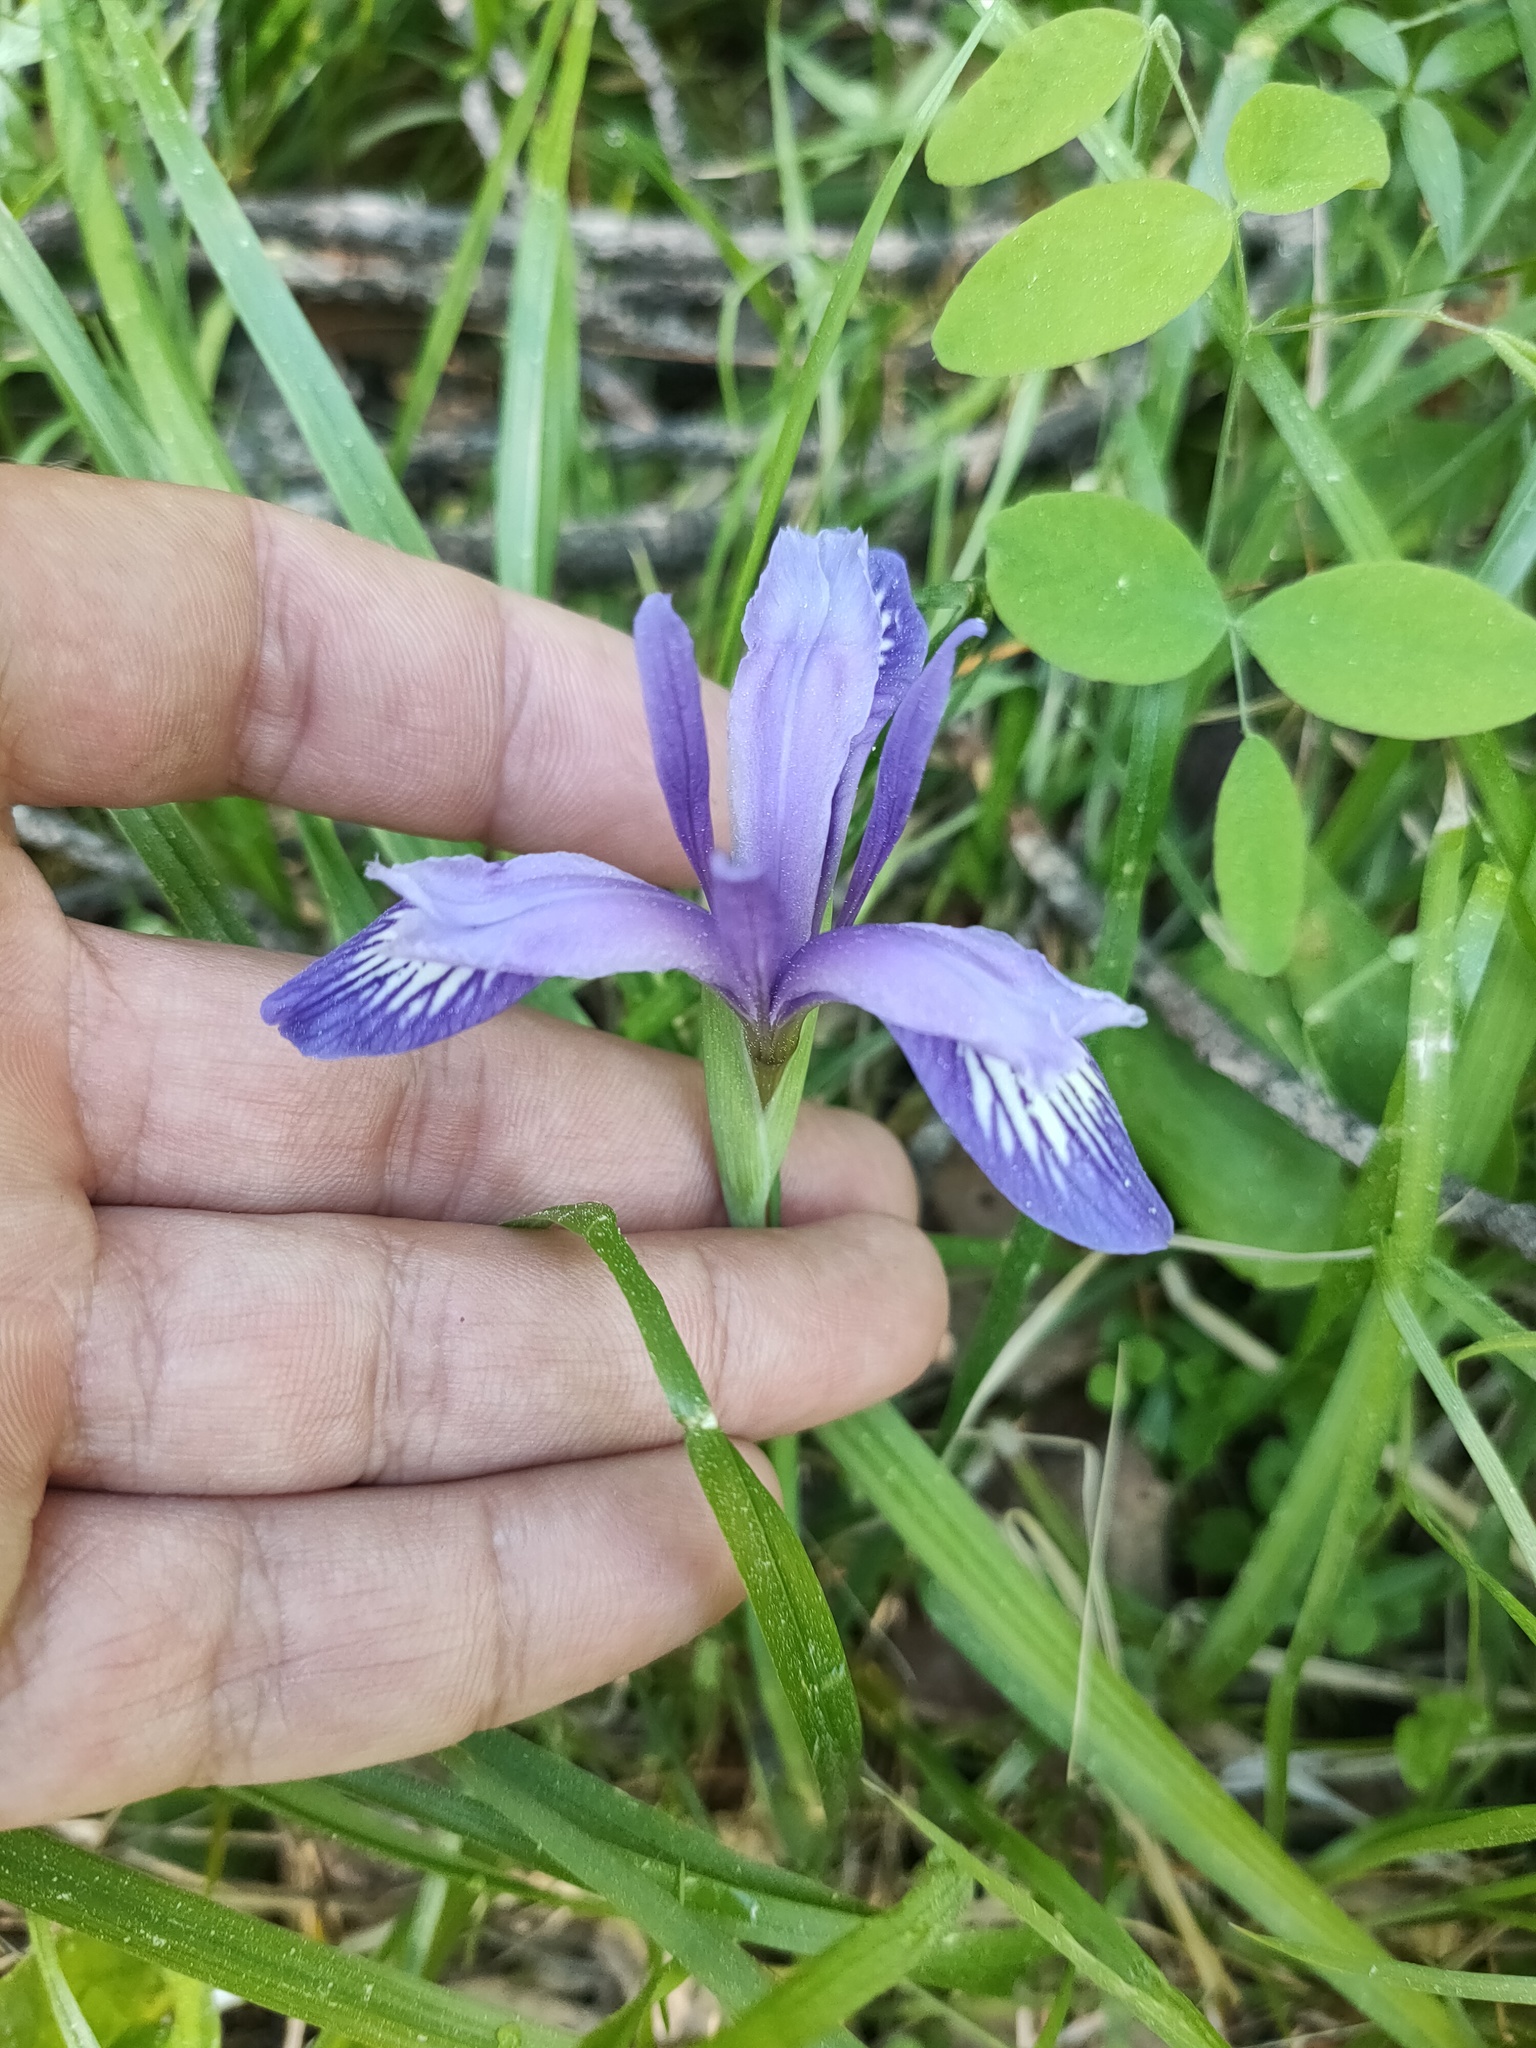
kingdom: Plantae
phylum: Tracheophyta
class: Liliopsida
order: Asparagales
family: Iridaceae
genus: Iris
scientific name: Iris ruthenica
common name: Purple-bract iris
